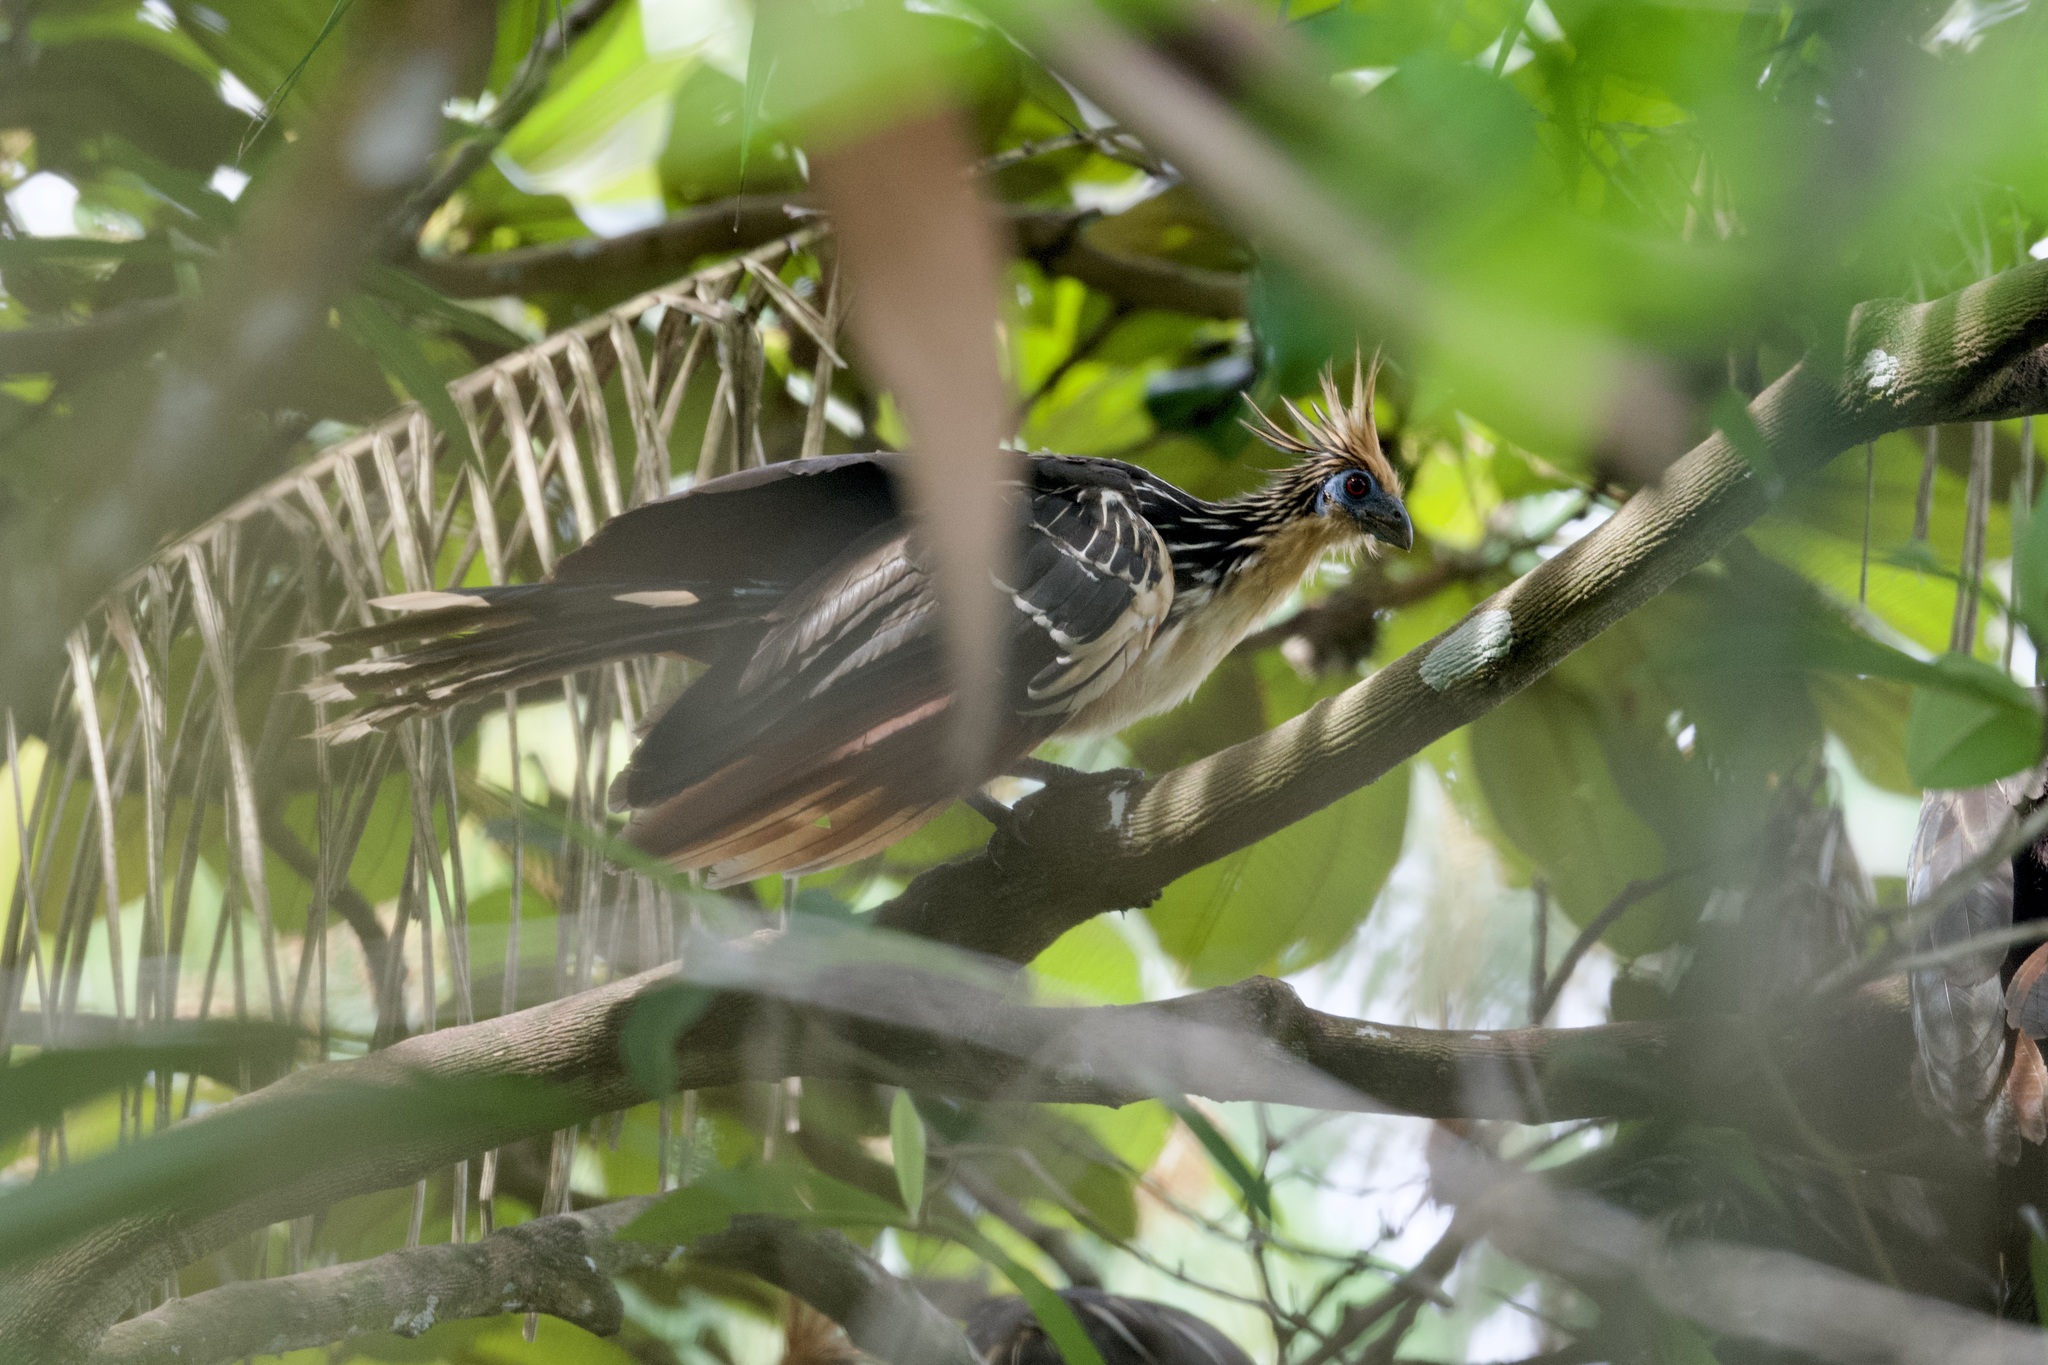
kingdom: Animalia
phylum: Chordata
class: Aves
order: Opisthocomiformes
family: Opisthocomidae
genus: Opisthocomus
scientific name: Opisthocomus hoazin
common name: Hoatzin
